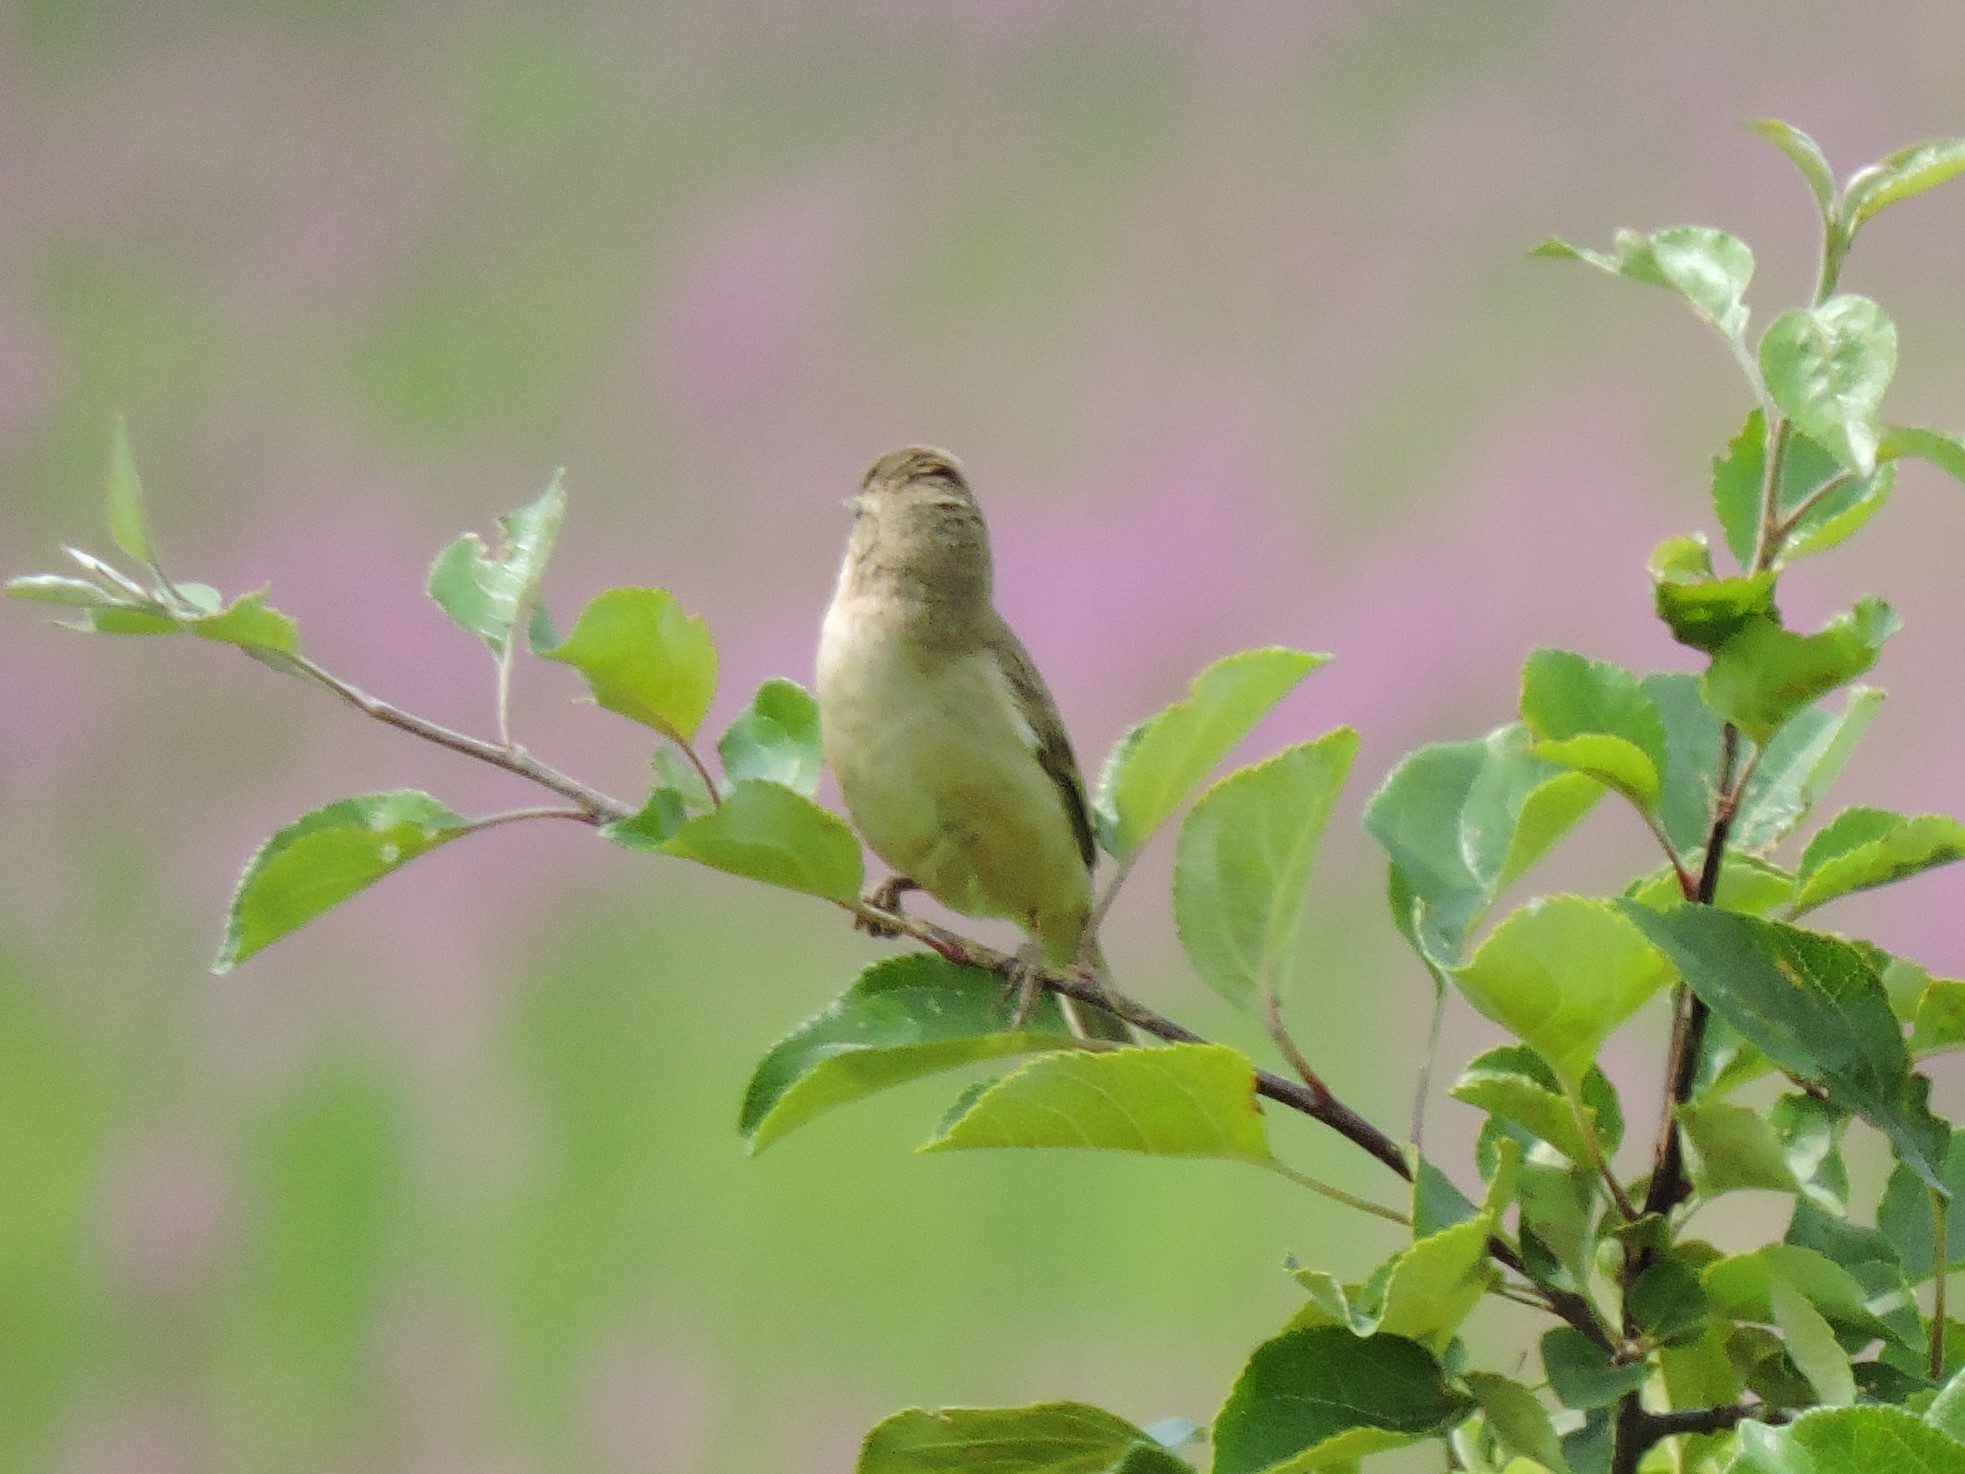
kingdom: Animalia
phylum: Chordata
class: Aves
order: Passeriformes
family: Acrocephalidae
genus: Iduna
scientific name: Iduna caligata
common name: Booted warbler
